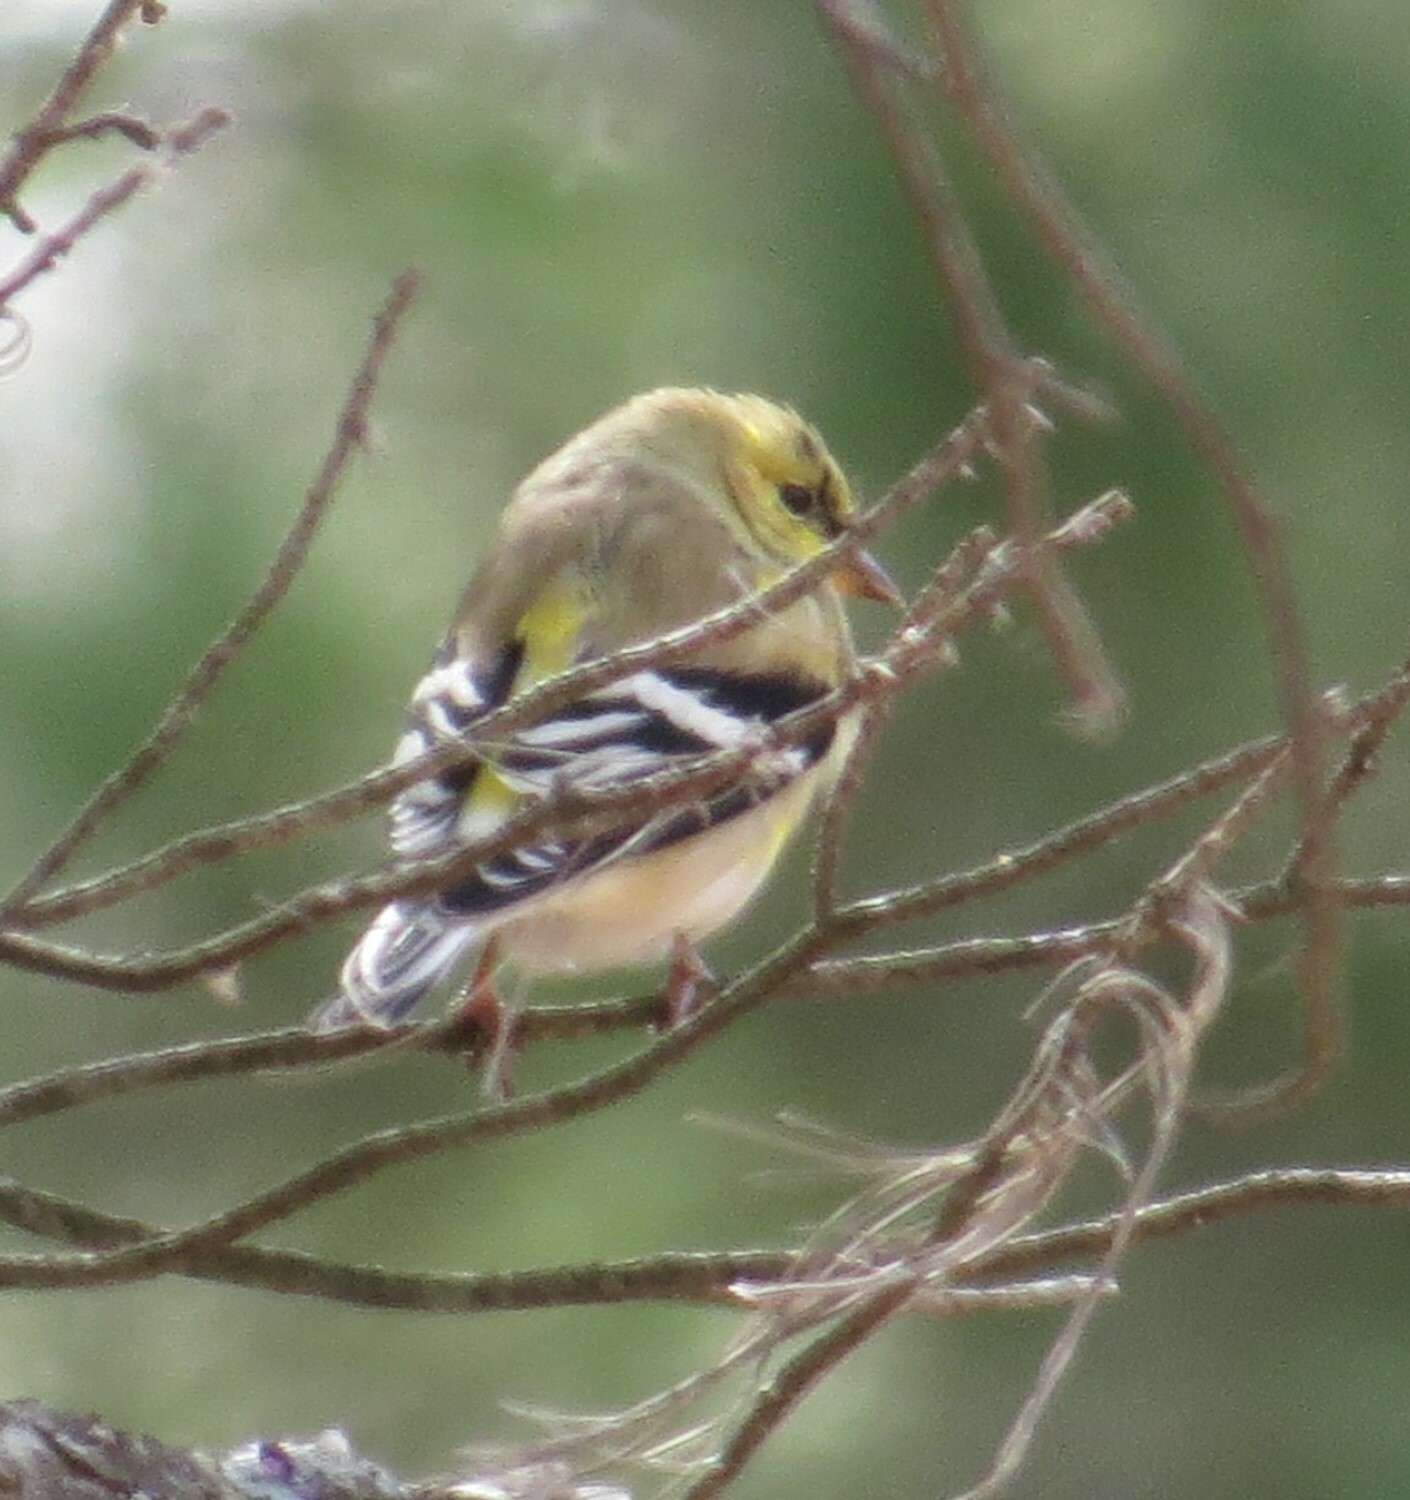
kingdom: Animalia
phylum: Chordata
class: Aves
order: Passeriformes
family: Fringillidae
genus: Spinus
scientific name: Spinus tristis
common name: American goldfinch
